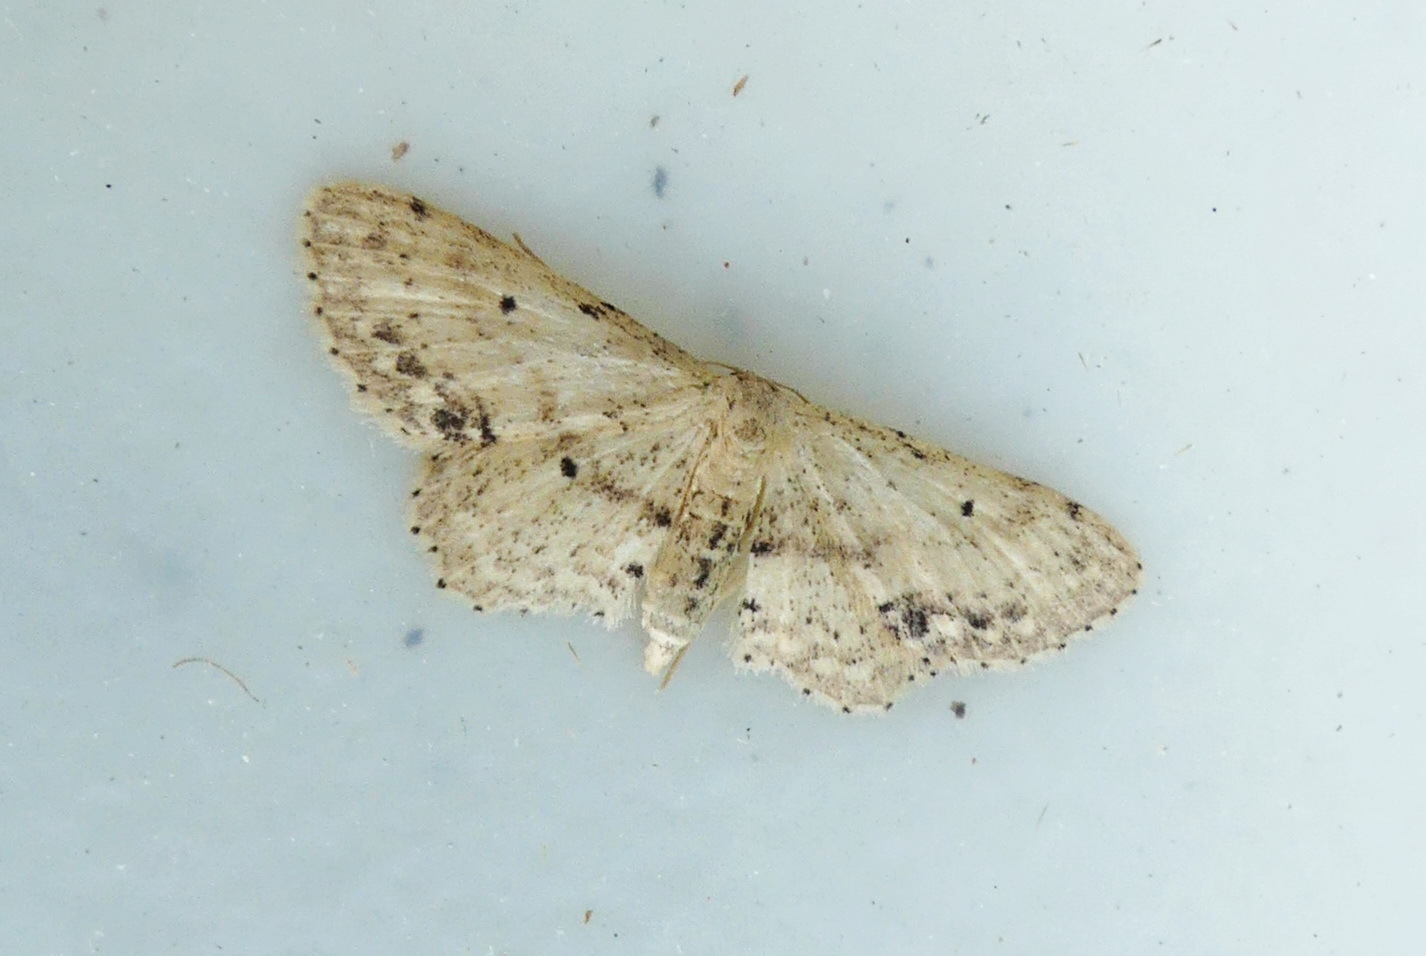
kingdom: Animalia
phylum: Arthropoda
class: Insecta
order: Lepidoptera
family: Geometridae
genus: Idaea
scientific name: Idaea dimidiata
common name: Single-dotted wave
